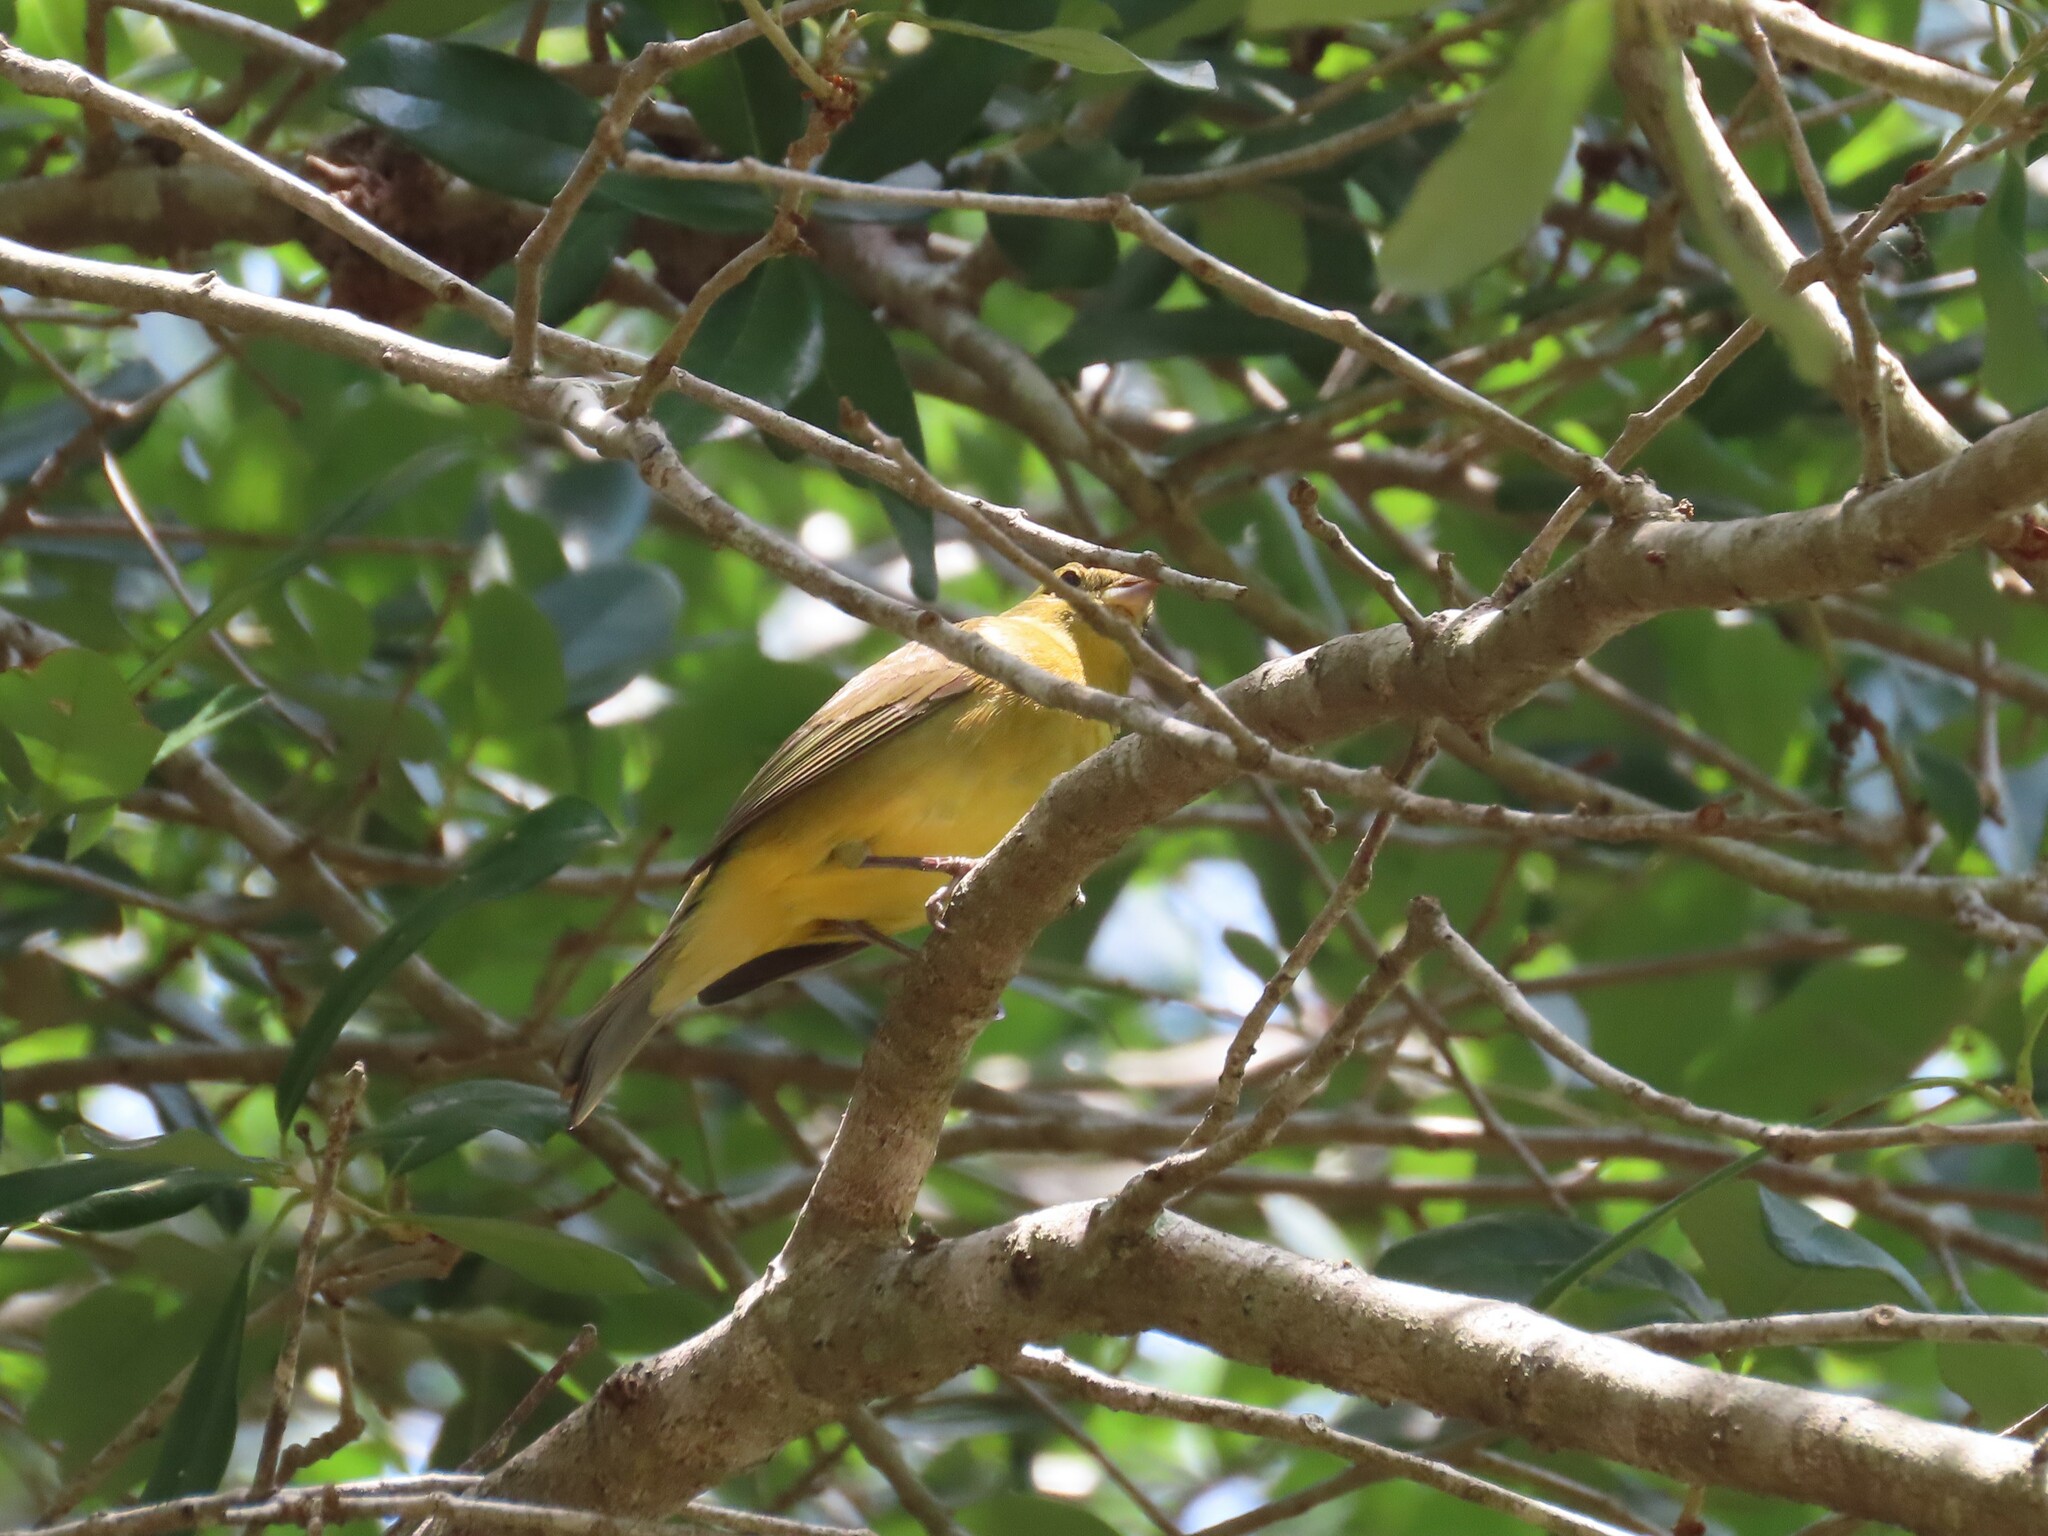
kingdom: Animalia
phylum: Chordata
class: Aves
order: Passeriformes
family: Cardinalidae
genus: Piranga
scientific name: Piranga rubra
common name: Summer tanager
